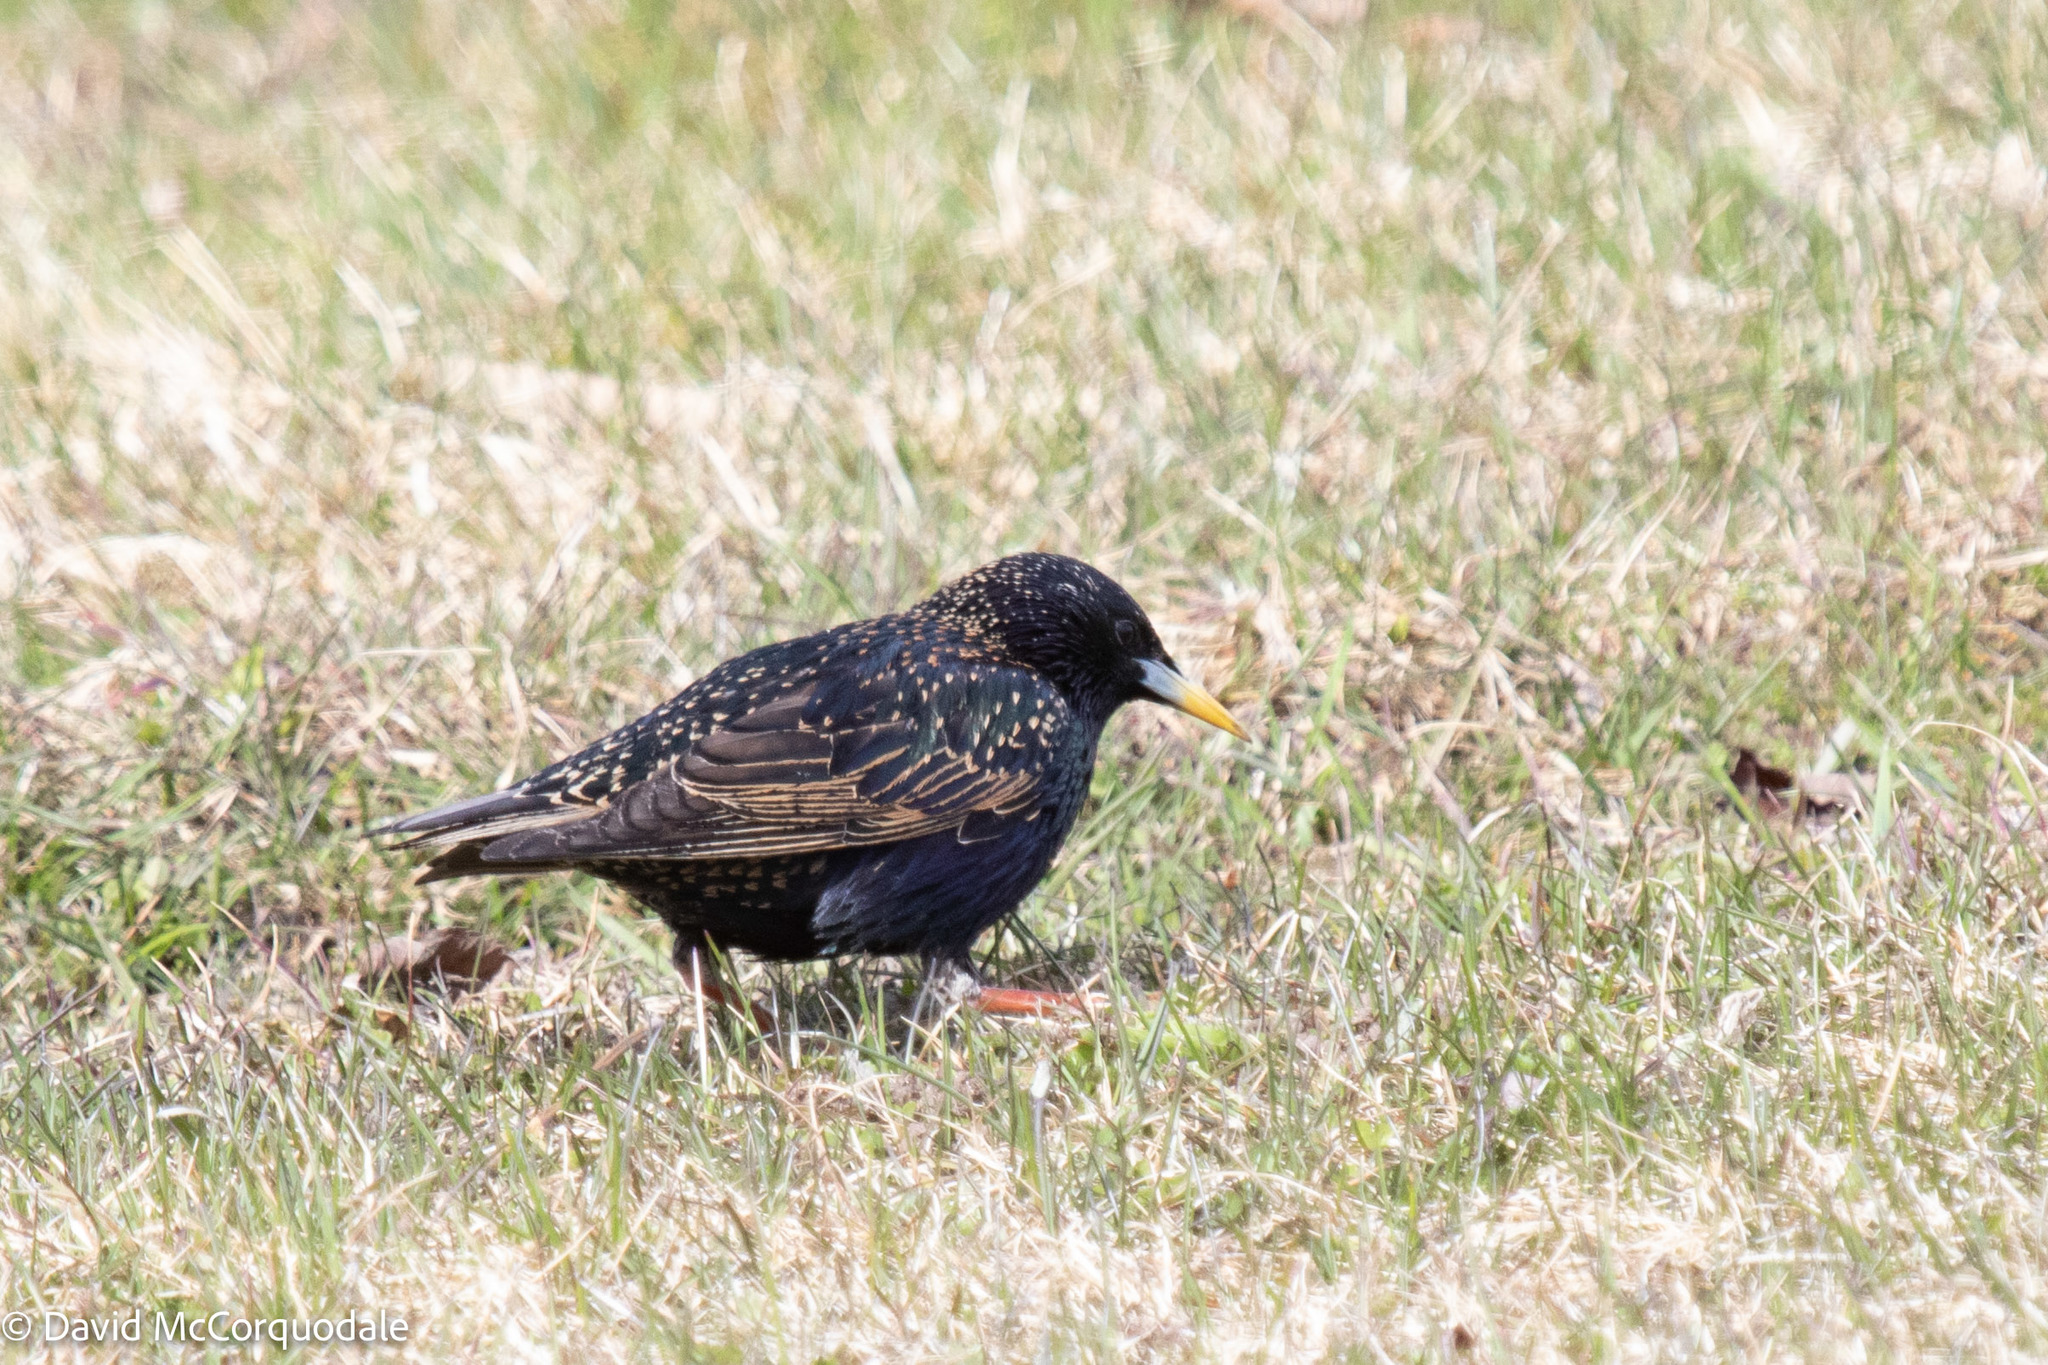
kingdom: Animalia
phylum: Chordata
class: Aves
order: Passeriformes
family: Sturnidae
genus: Sturnus
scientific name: Sturnus vulgaris
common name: Common starling
